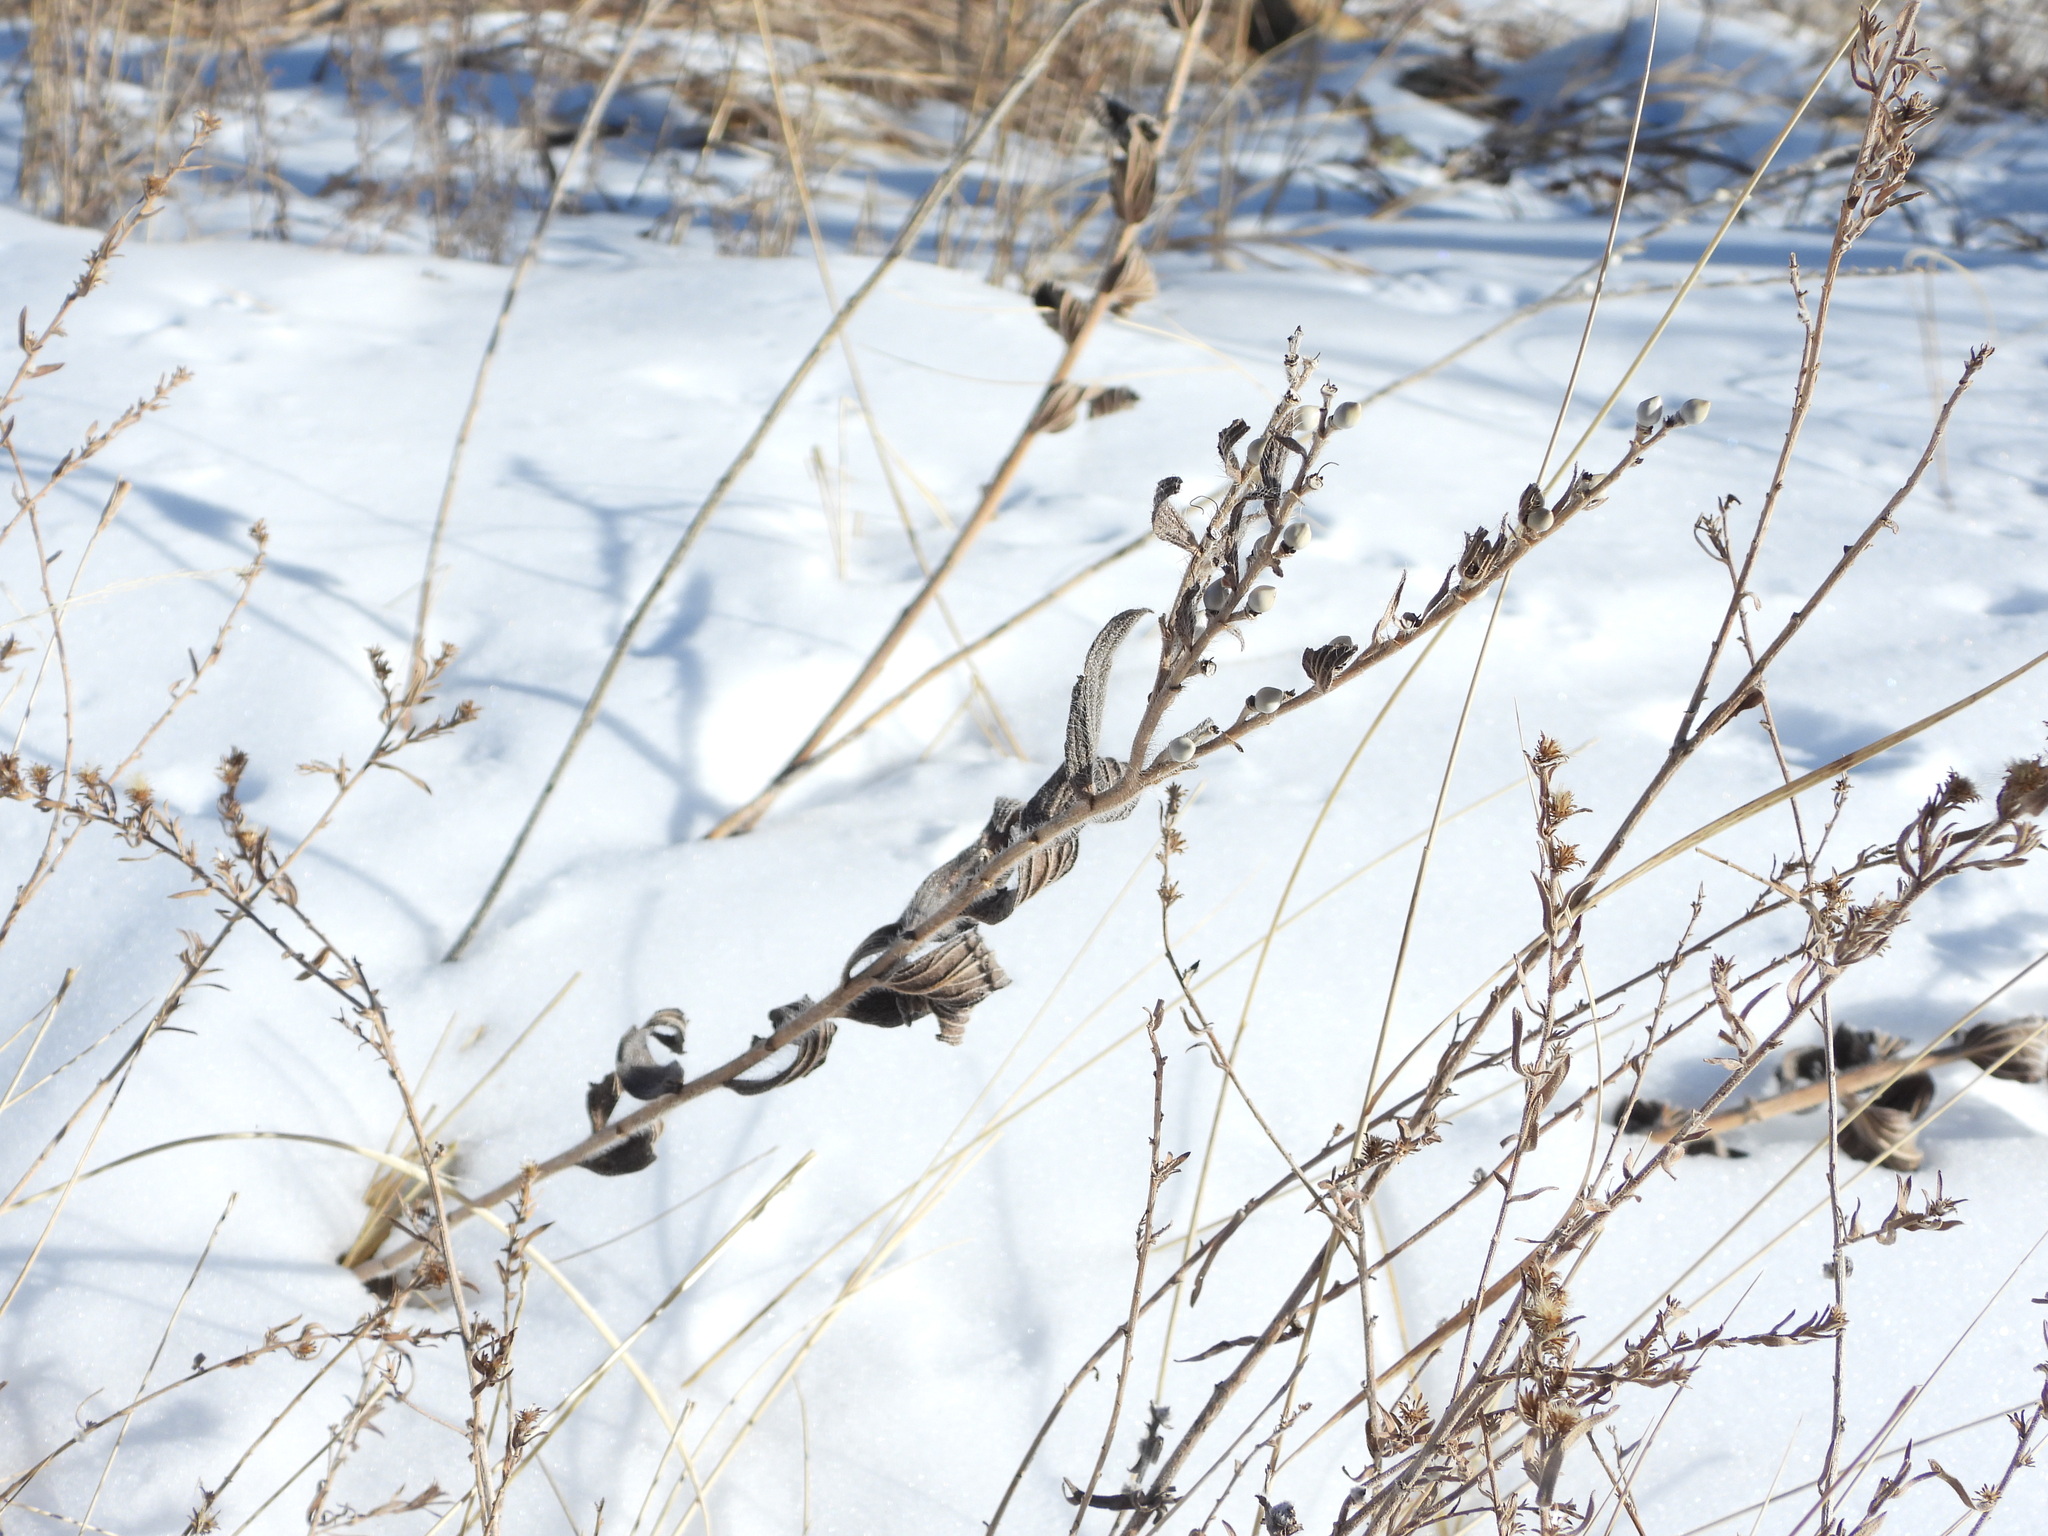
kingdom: Plantae
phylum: Tracheophyta
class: Magnoliopsida
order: Boraginales
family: Boraginaceae
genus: Lithospermum
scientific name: Lithospermum occidentale
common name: Western false gromwell
